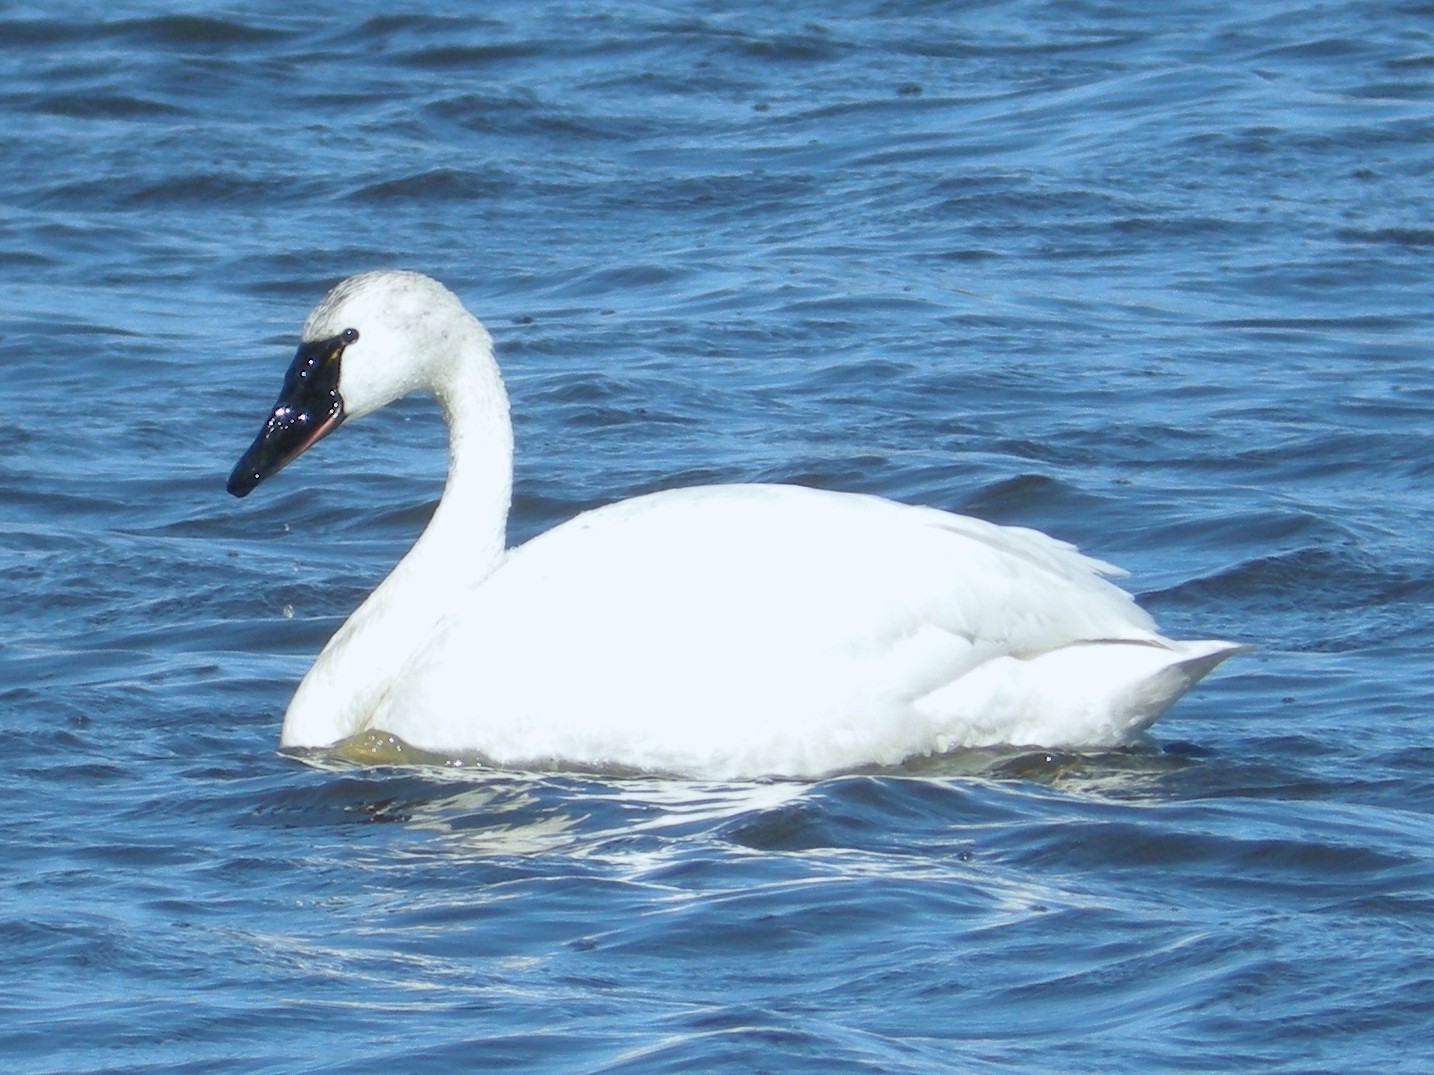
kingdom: Animalia
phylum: Chordata
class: Aves
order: Anseriformes
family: Anatidae
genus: Cygnus
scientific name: Cygnus columbianus
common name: Tundra swan
